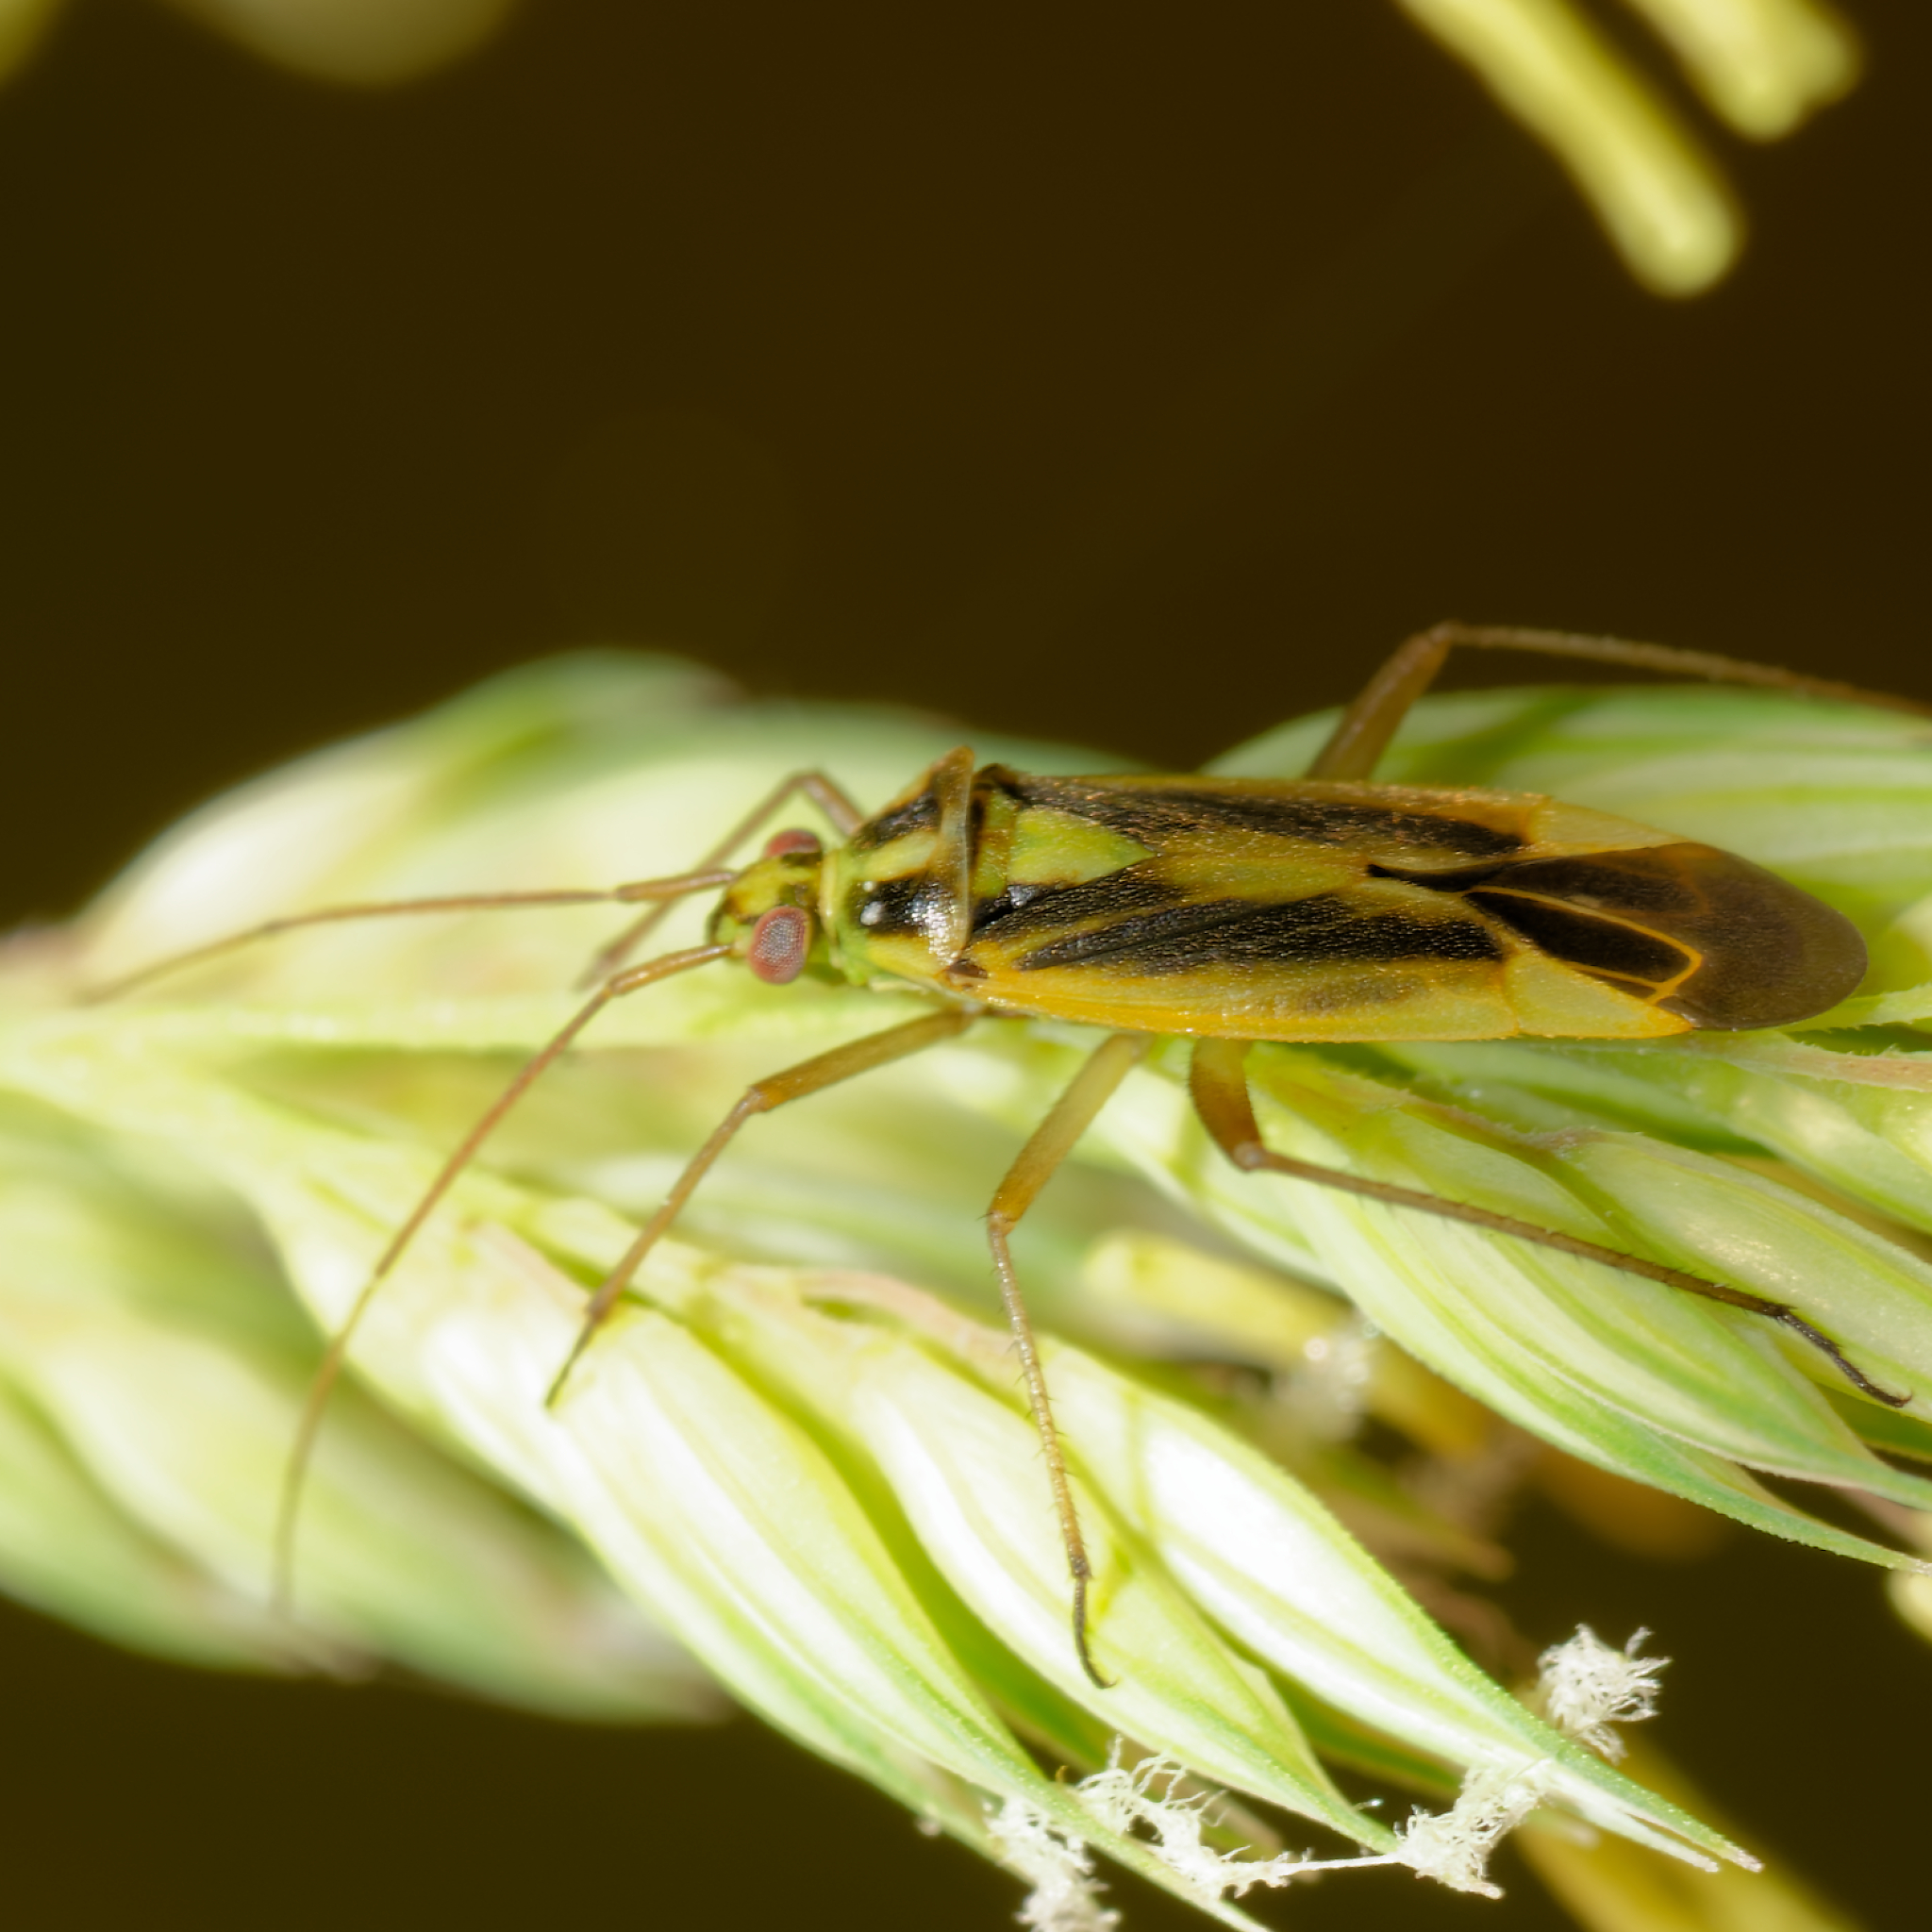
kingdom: Animalia
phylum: Arthropoda
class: Insecta
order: Hemiptera
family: Miridae
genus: Stenotus
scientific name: Stenotus binotatus
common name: Plant bug
